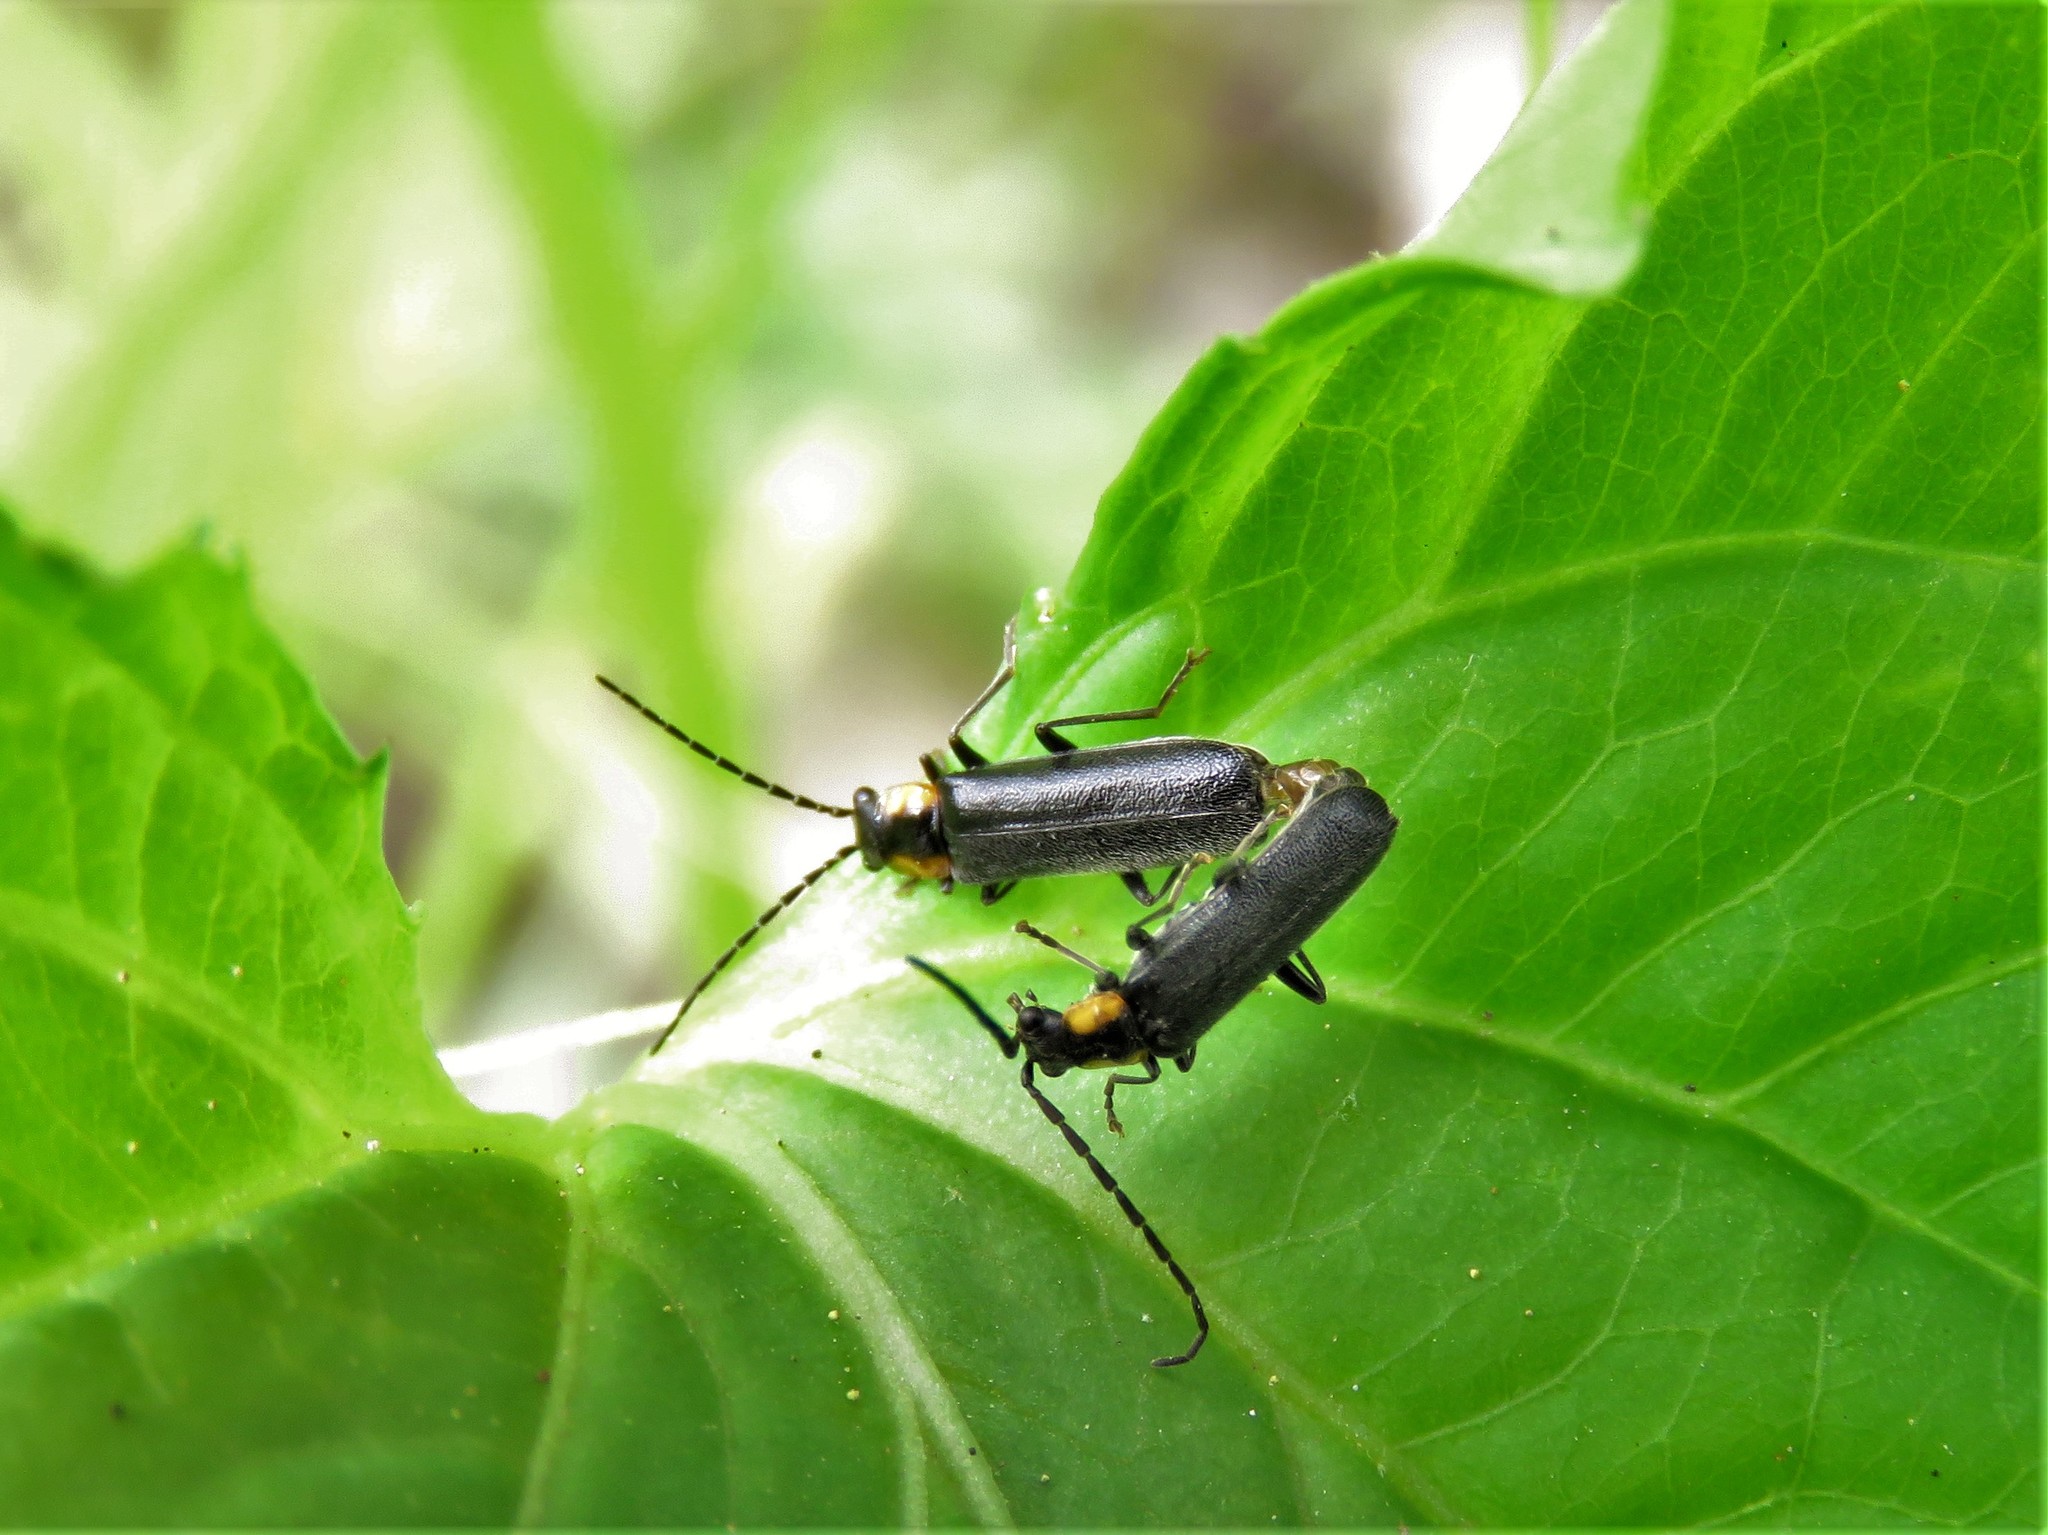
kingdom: Animalia
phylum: Arthropoda
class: Insecta
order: Coleoptera
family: Cantharidae
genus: Rhagonycha
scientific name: Rhagonycha lineola
